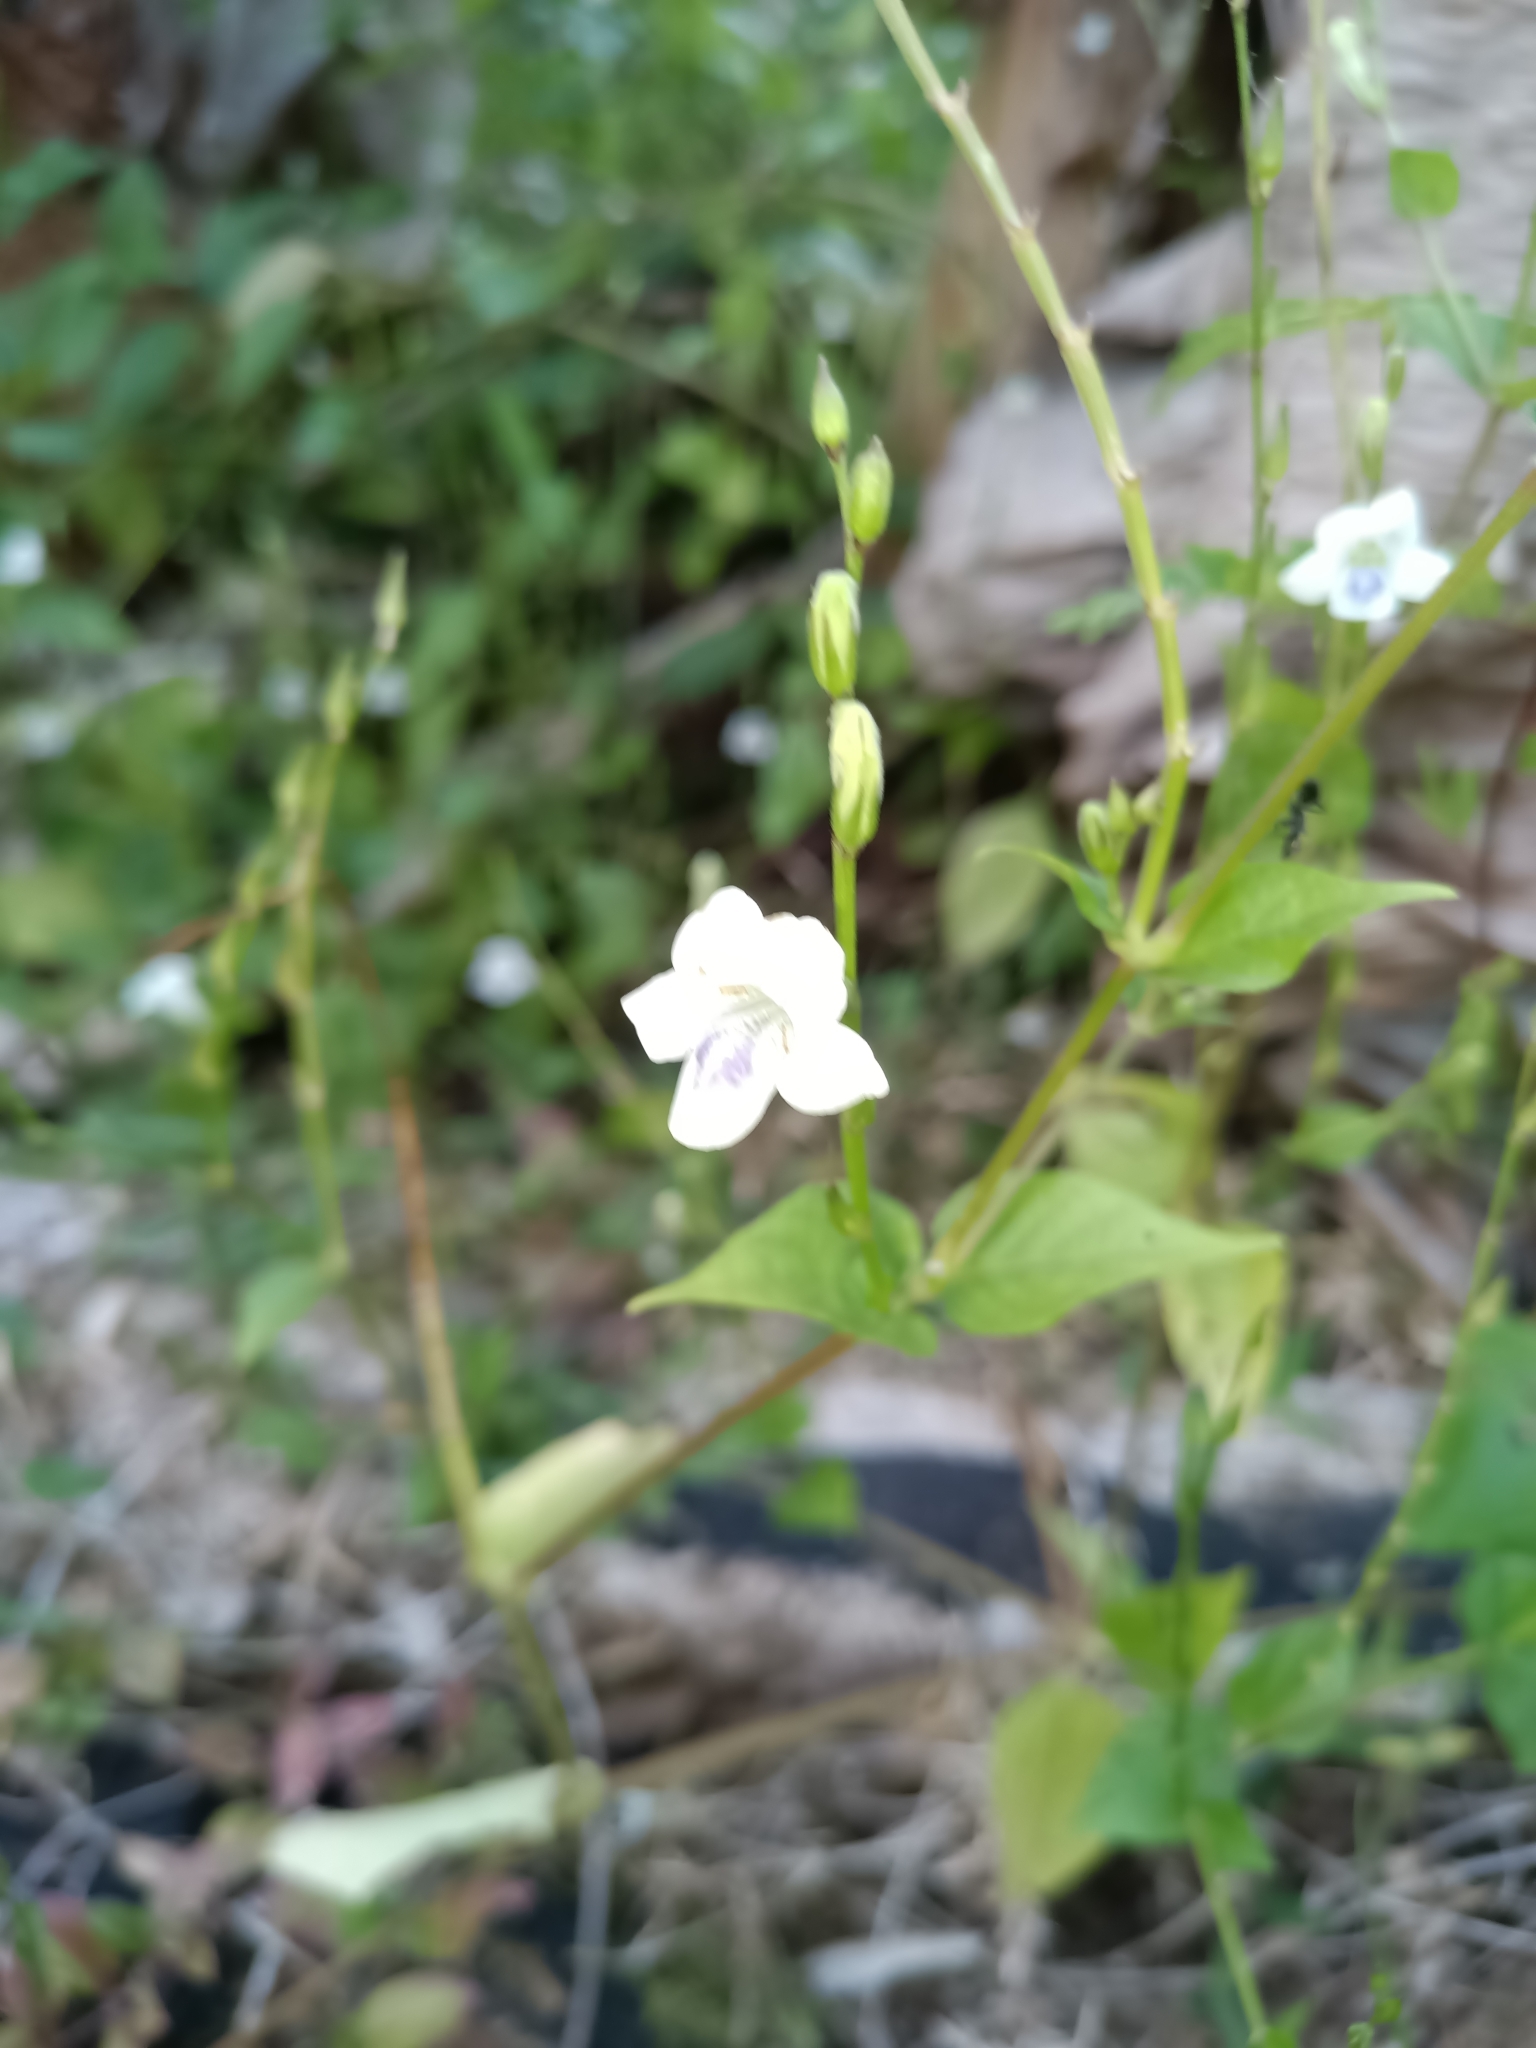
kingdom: Plantae
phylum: Tracheophyta
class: Magnoliopsida
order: Lamiales
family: Acanthaceae
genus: Asystasia
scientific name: Asystasia intrusa
